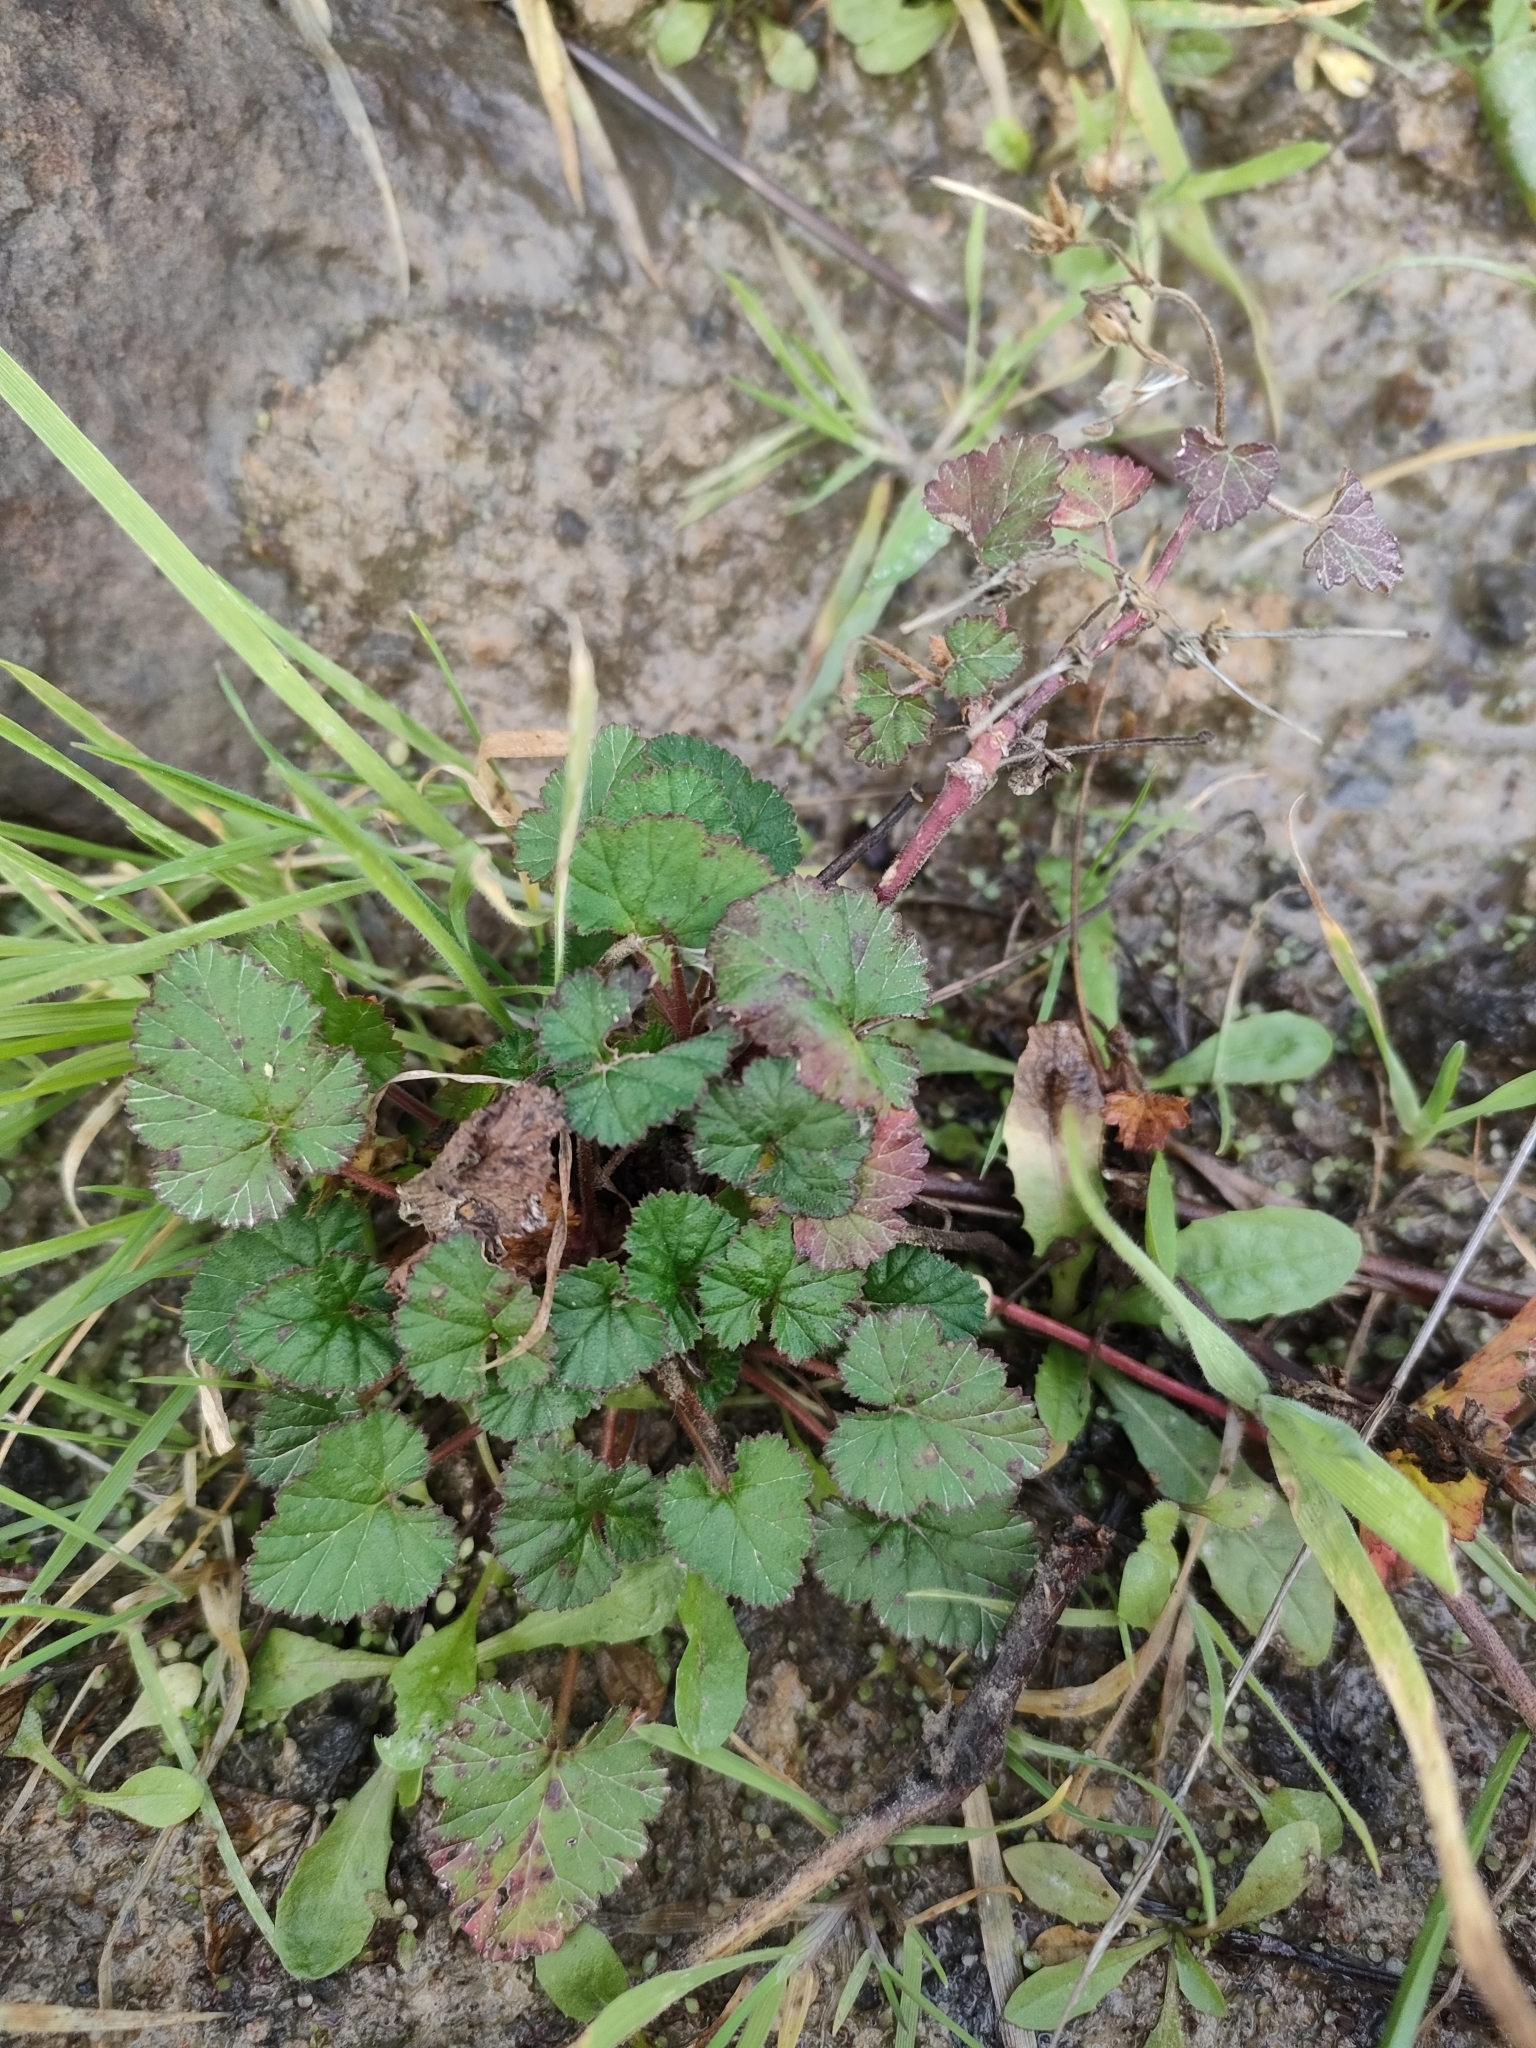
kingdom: Plantae
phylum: Tracheophyta
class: Magnoliopsida
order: Geraniales
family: Geraniaceae
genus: Pelargonium
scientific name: Pelargonium inodorum
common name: Kopata geranium
